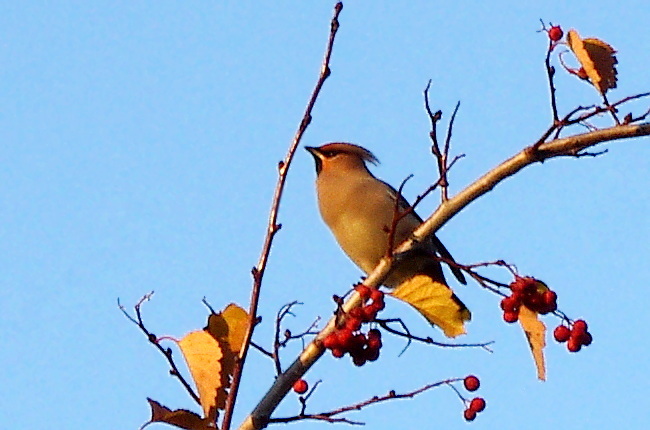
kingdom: Animalia
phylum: Chordata
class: Aves
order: Passeriformes
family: Bombycillidae
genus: Bombycilla
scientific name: Bombycilla garrulus
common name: Bohemian waxwing
